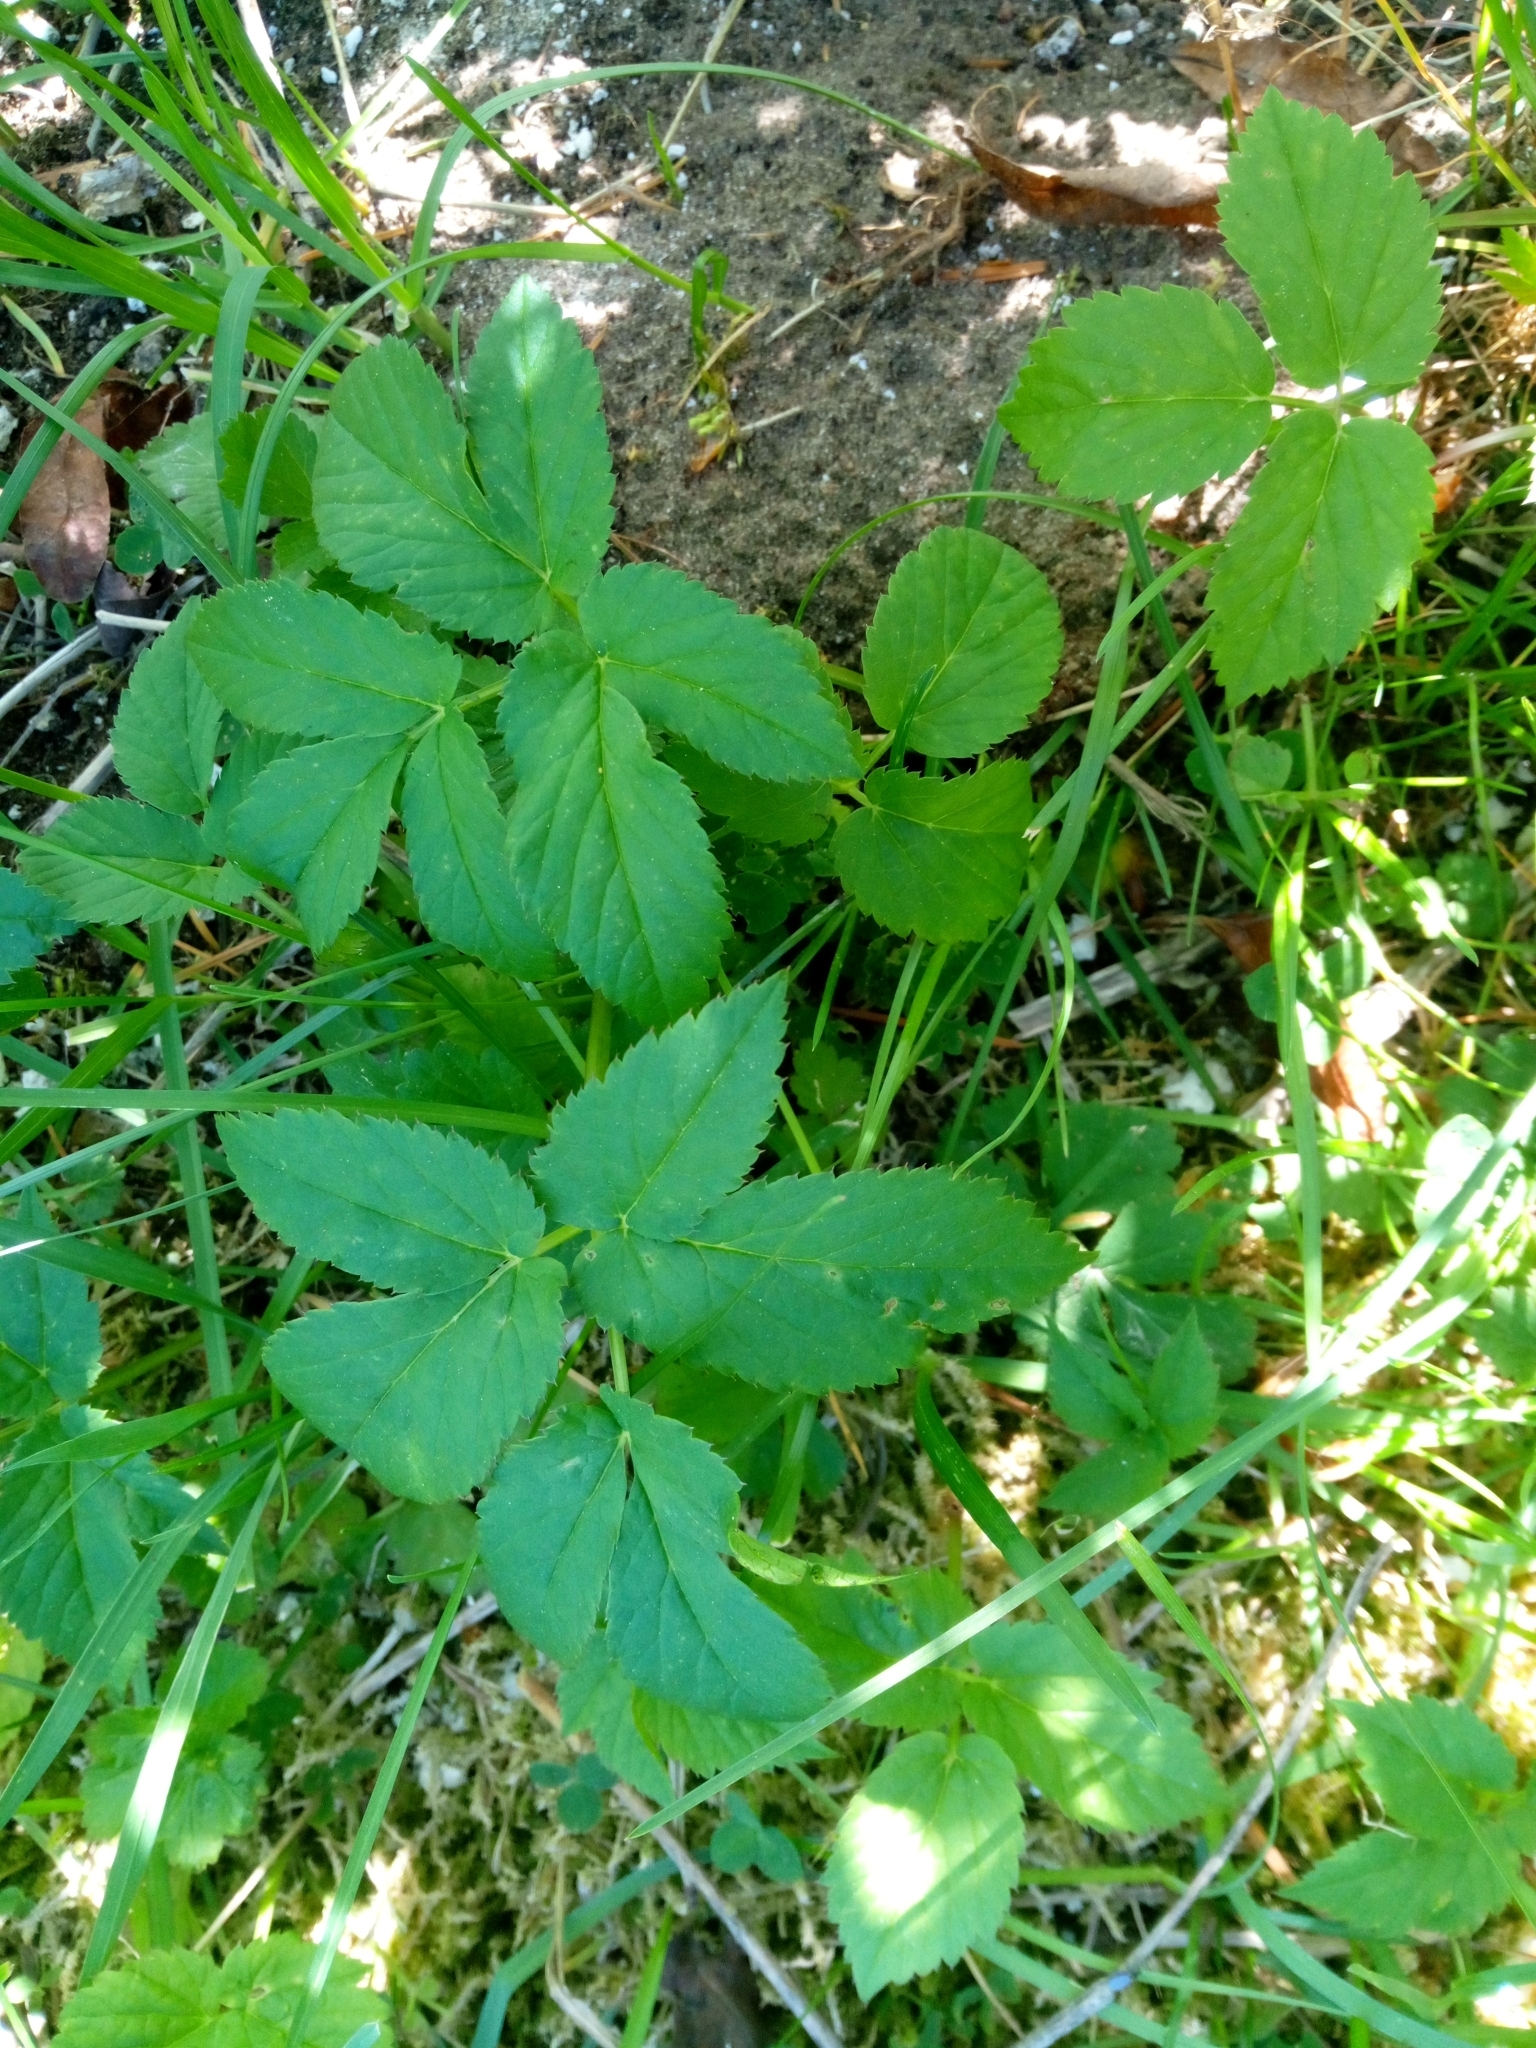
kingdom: Plantae
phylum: Tracheophyta
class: Magnoliopsida
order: Apiales
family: Apiaceae
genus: Aegopodium
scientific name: Aegopodium podagraria
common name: Ground-elder
